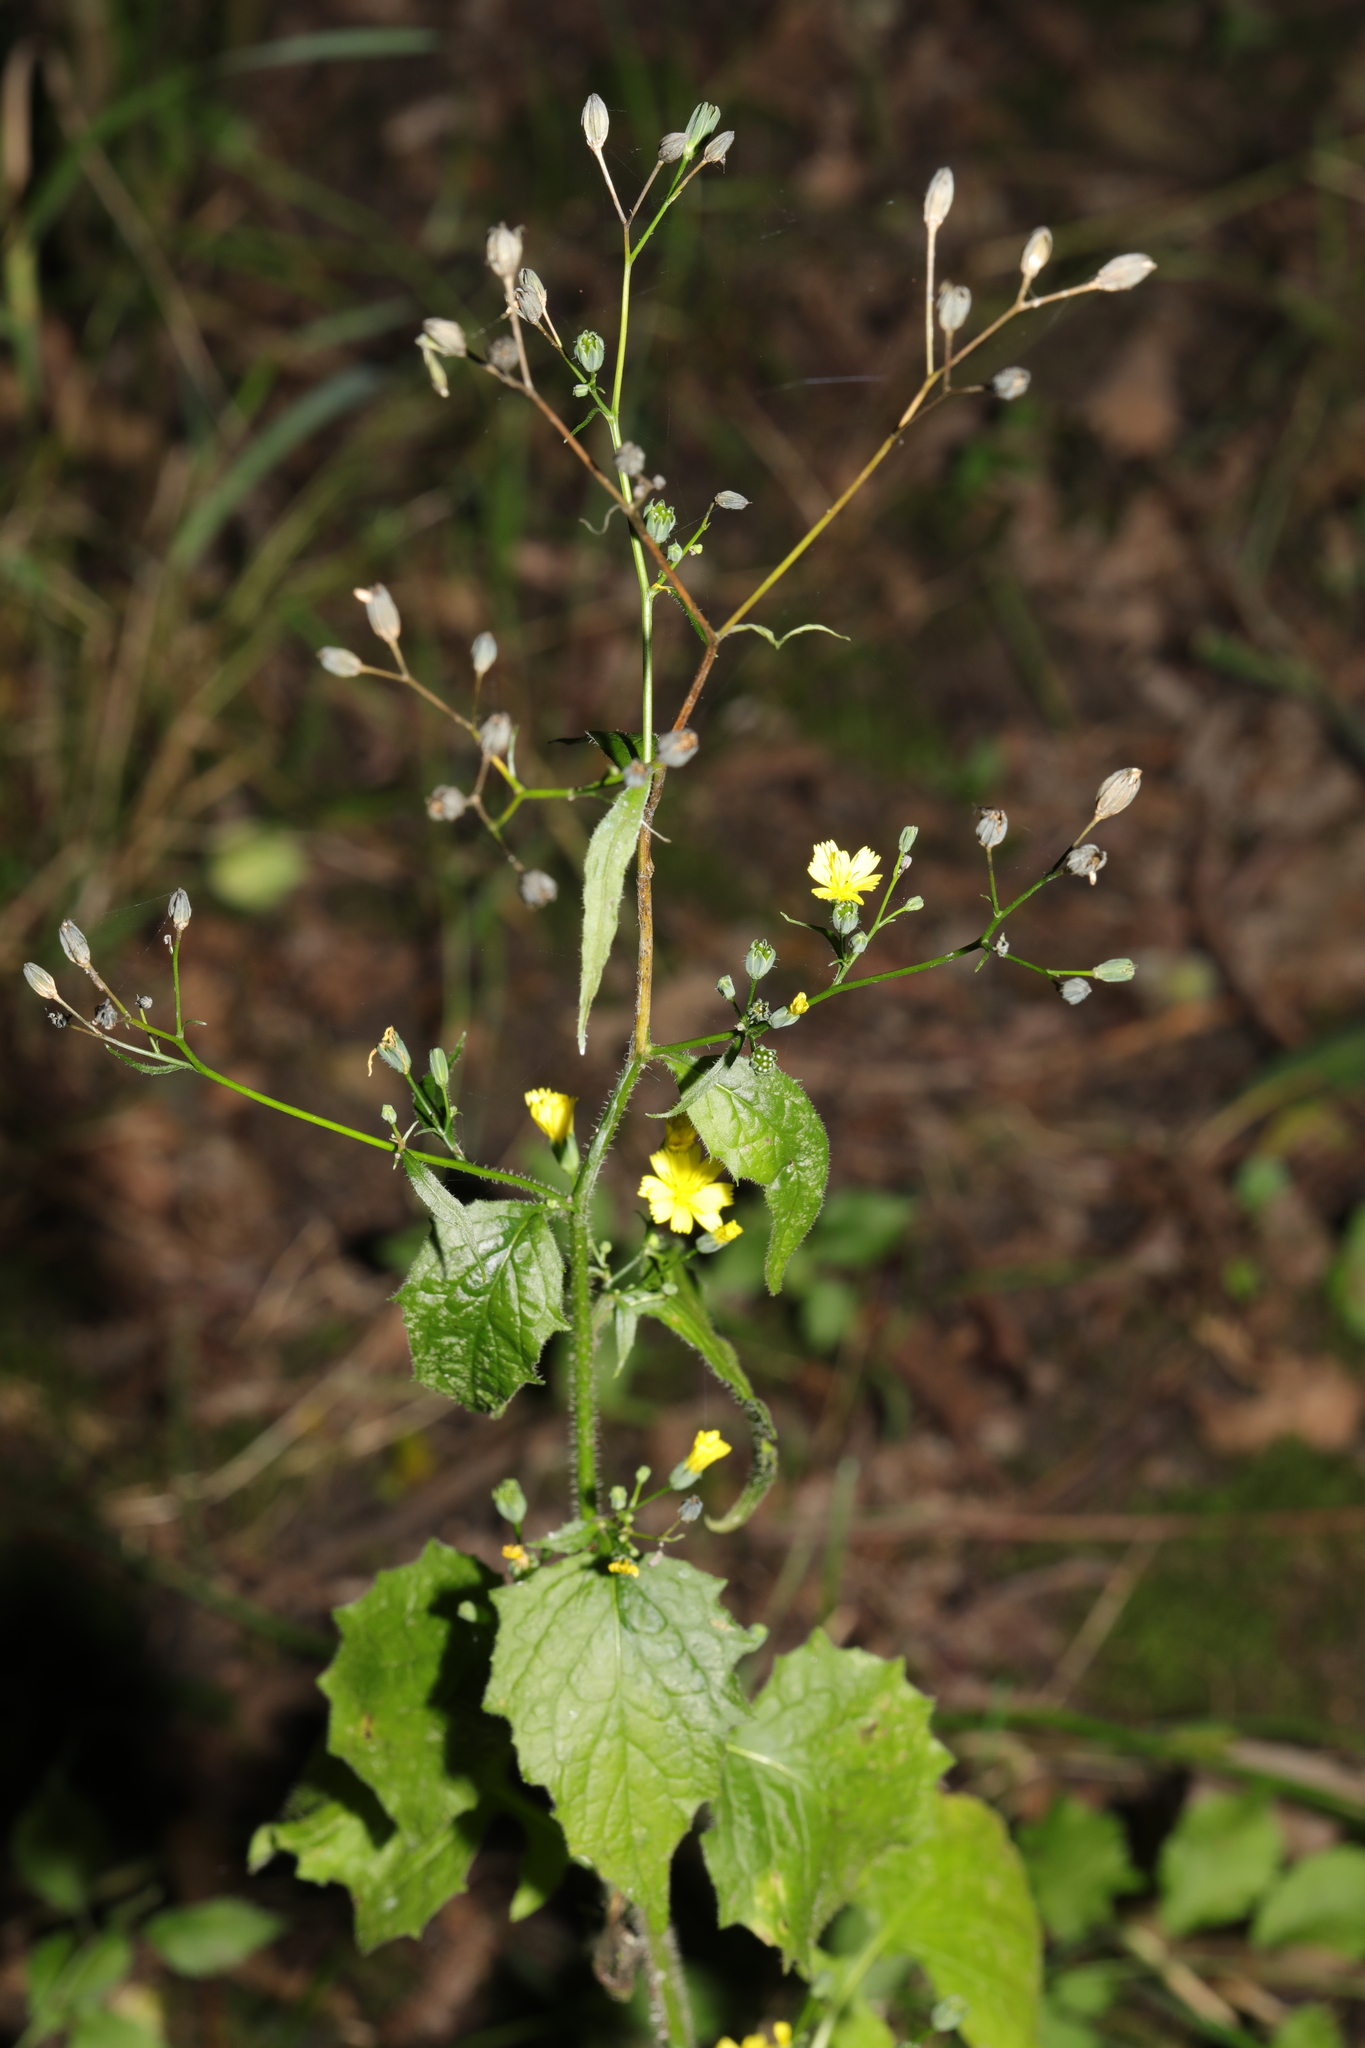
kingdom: Plantae
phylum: Tracheophyta
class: Magnoliopsida
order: Asterales
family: Asteraceae
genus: Lapsana
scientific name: Lapsana communis
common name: Nipplewort
